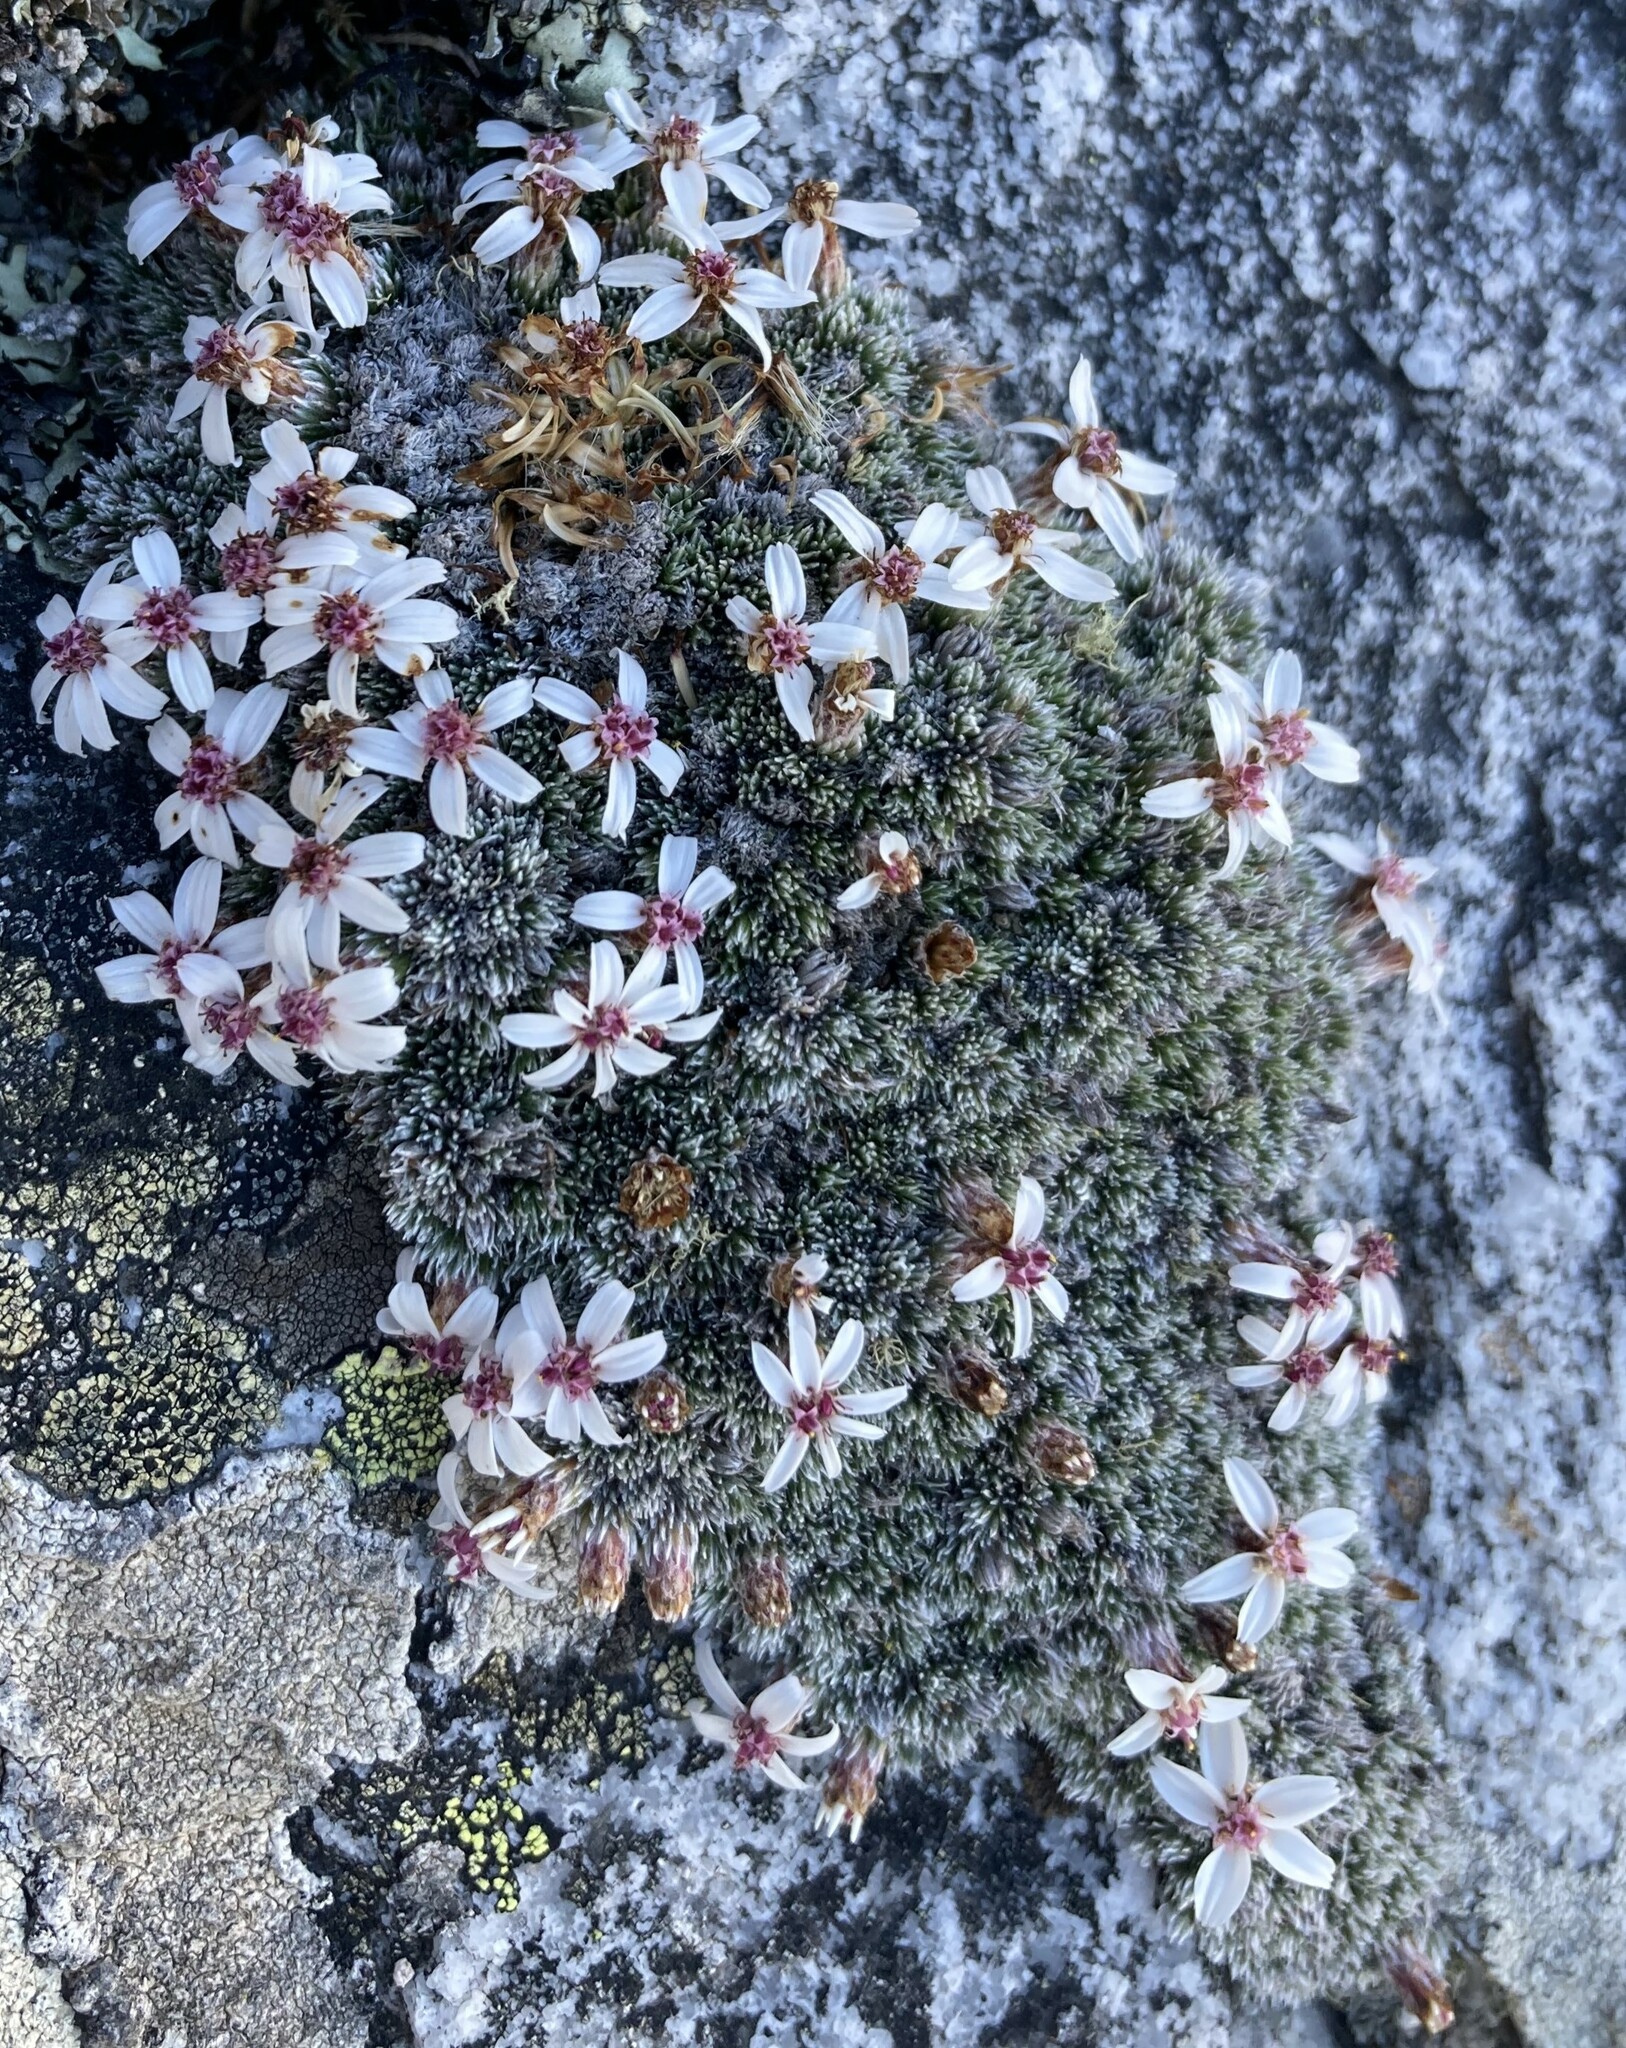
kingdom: Plantae
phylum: Tracheophyta
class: Magnoliopsida
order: Asterales
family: Asteraceae
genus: Muscosomorphe
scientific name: Muscosomorphe aretioides
